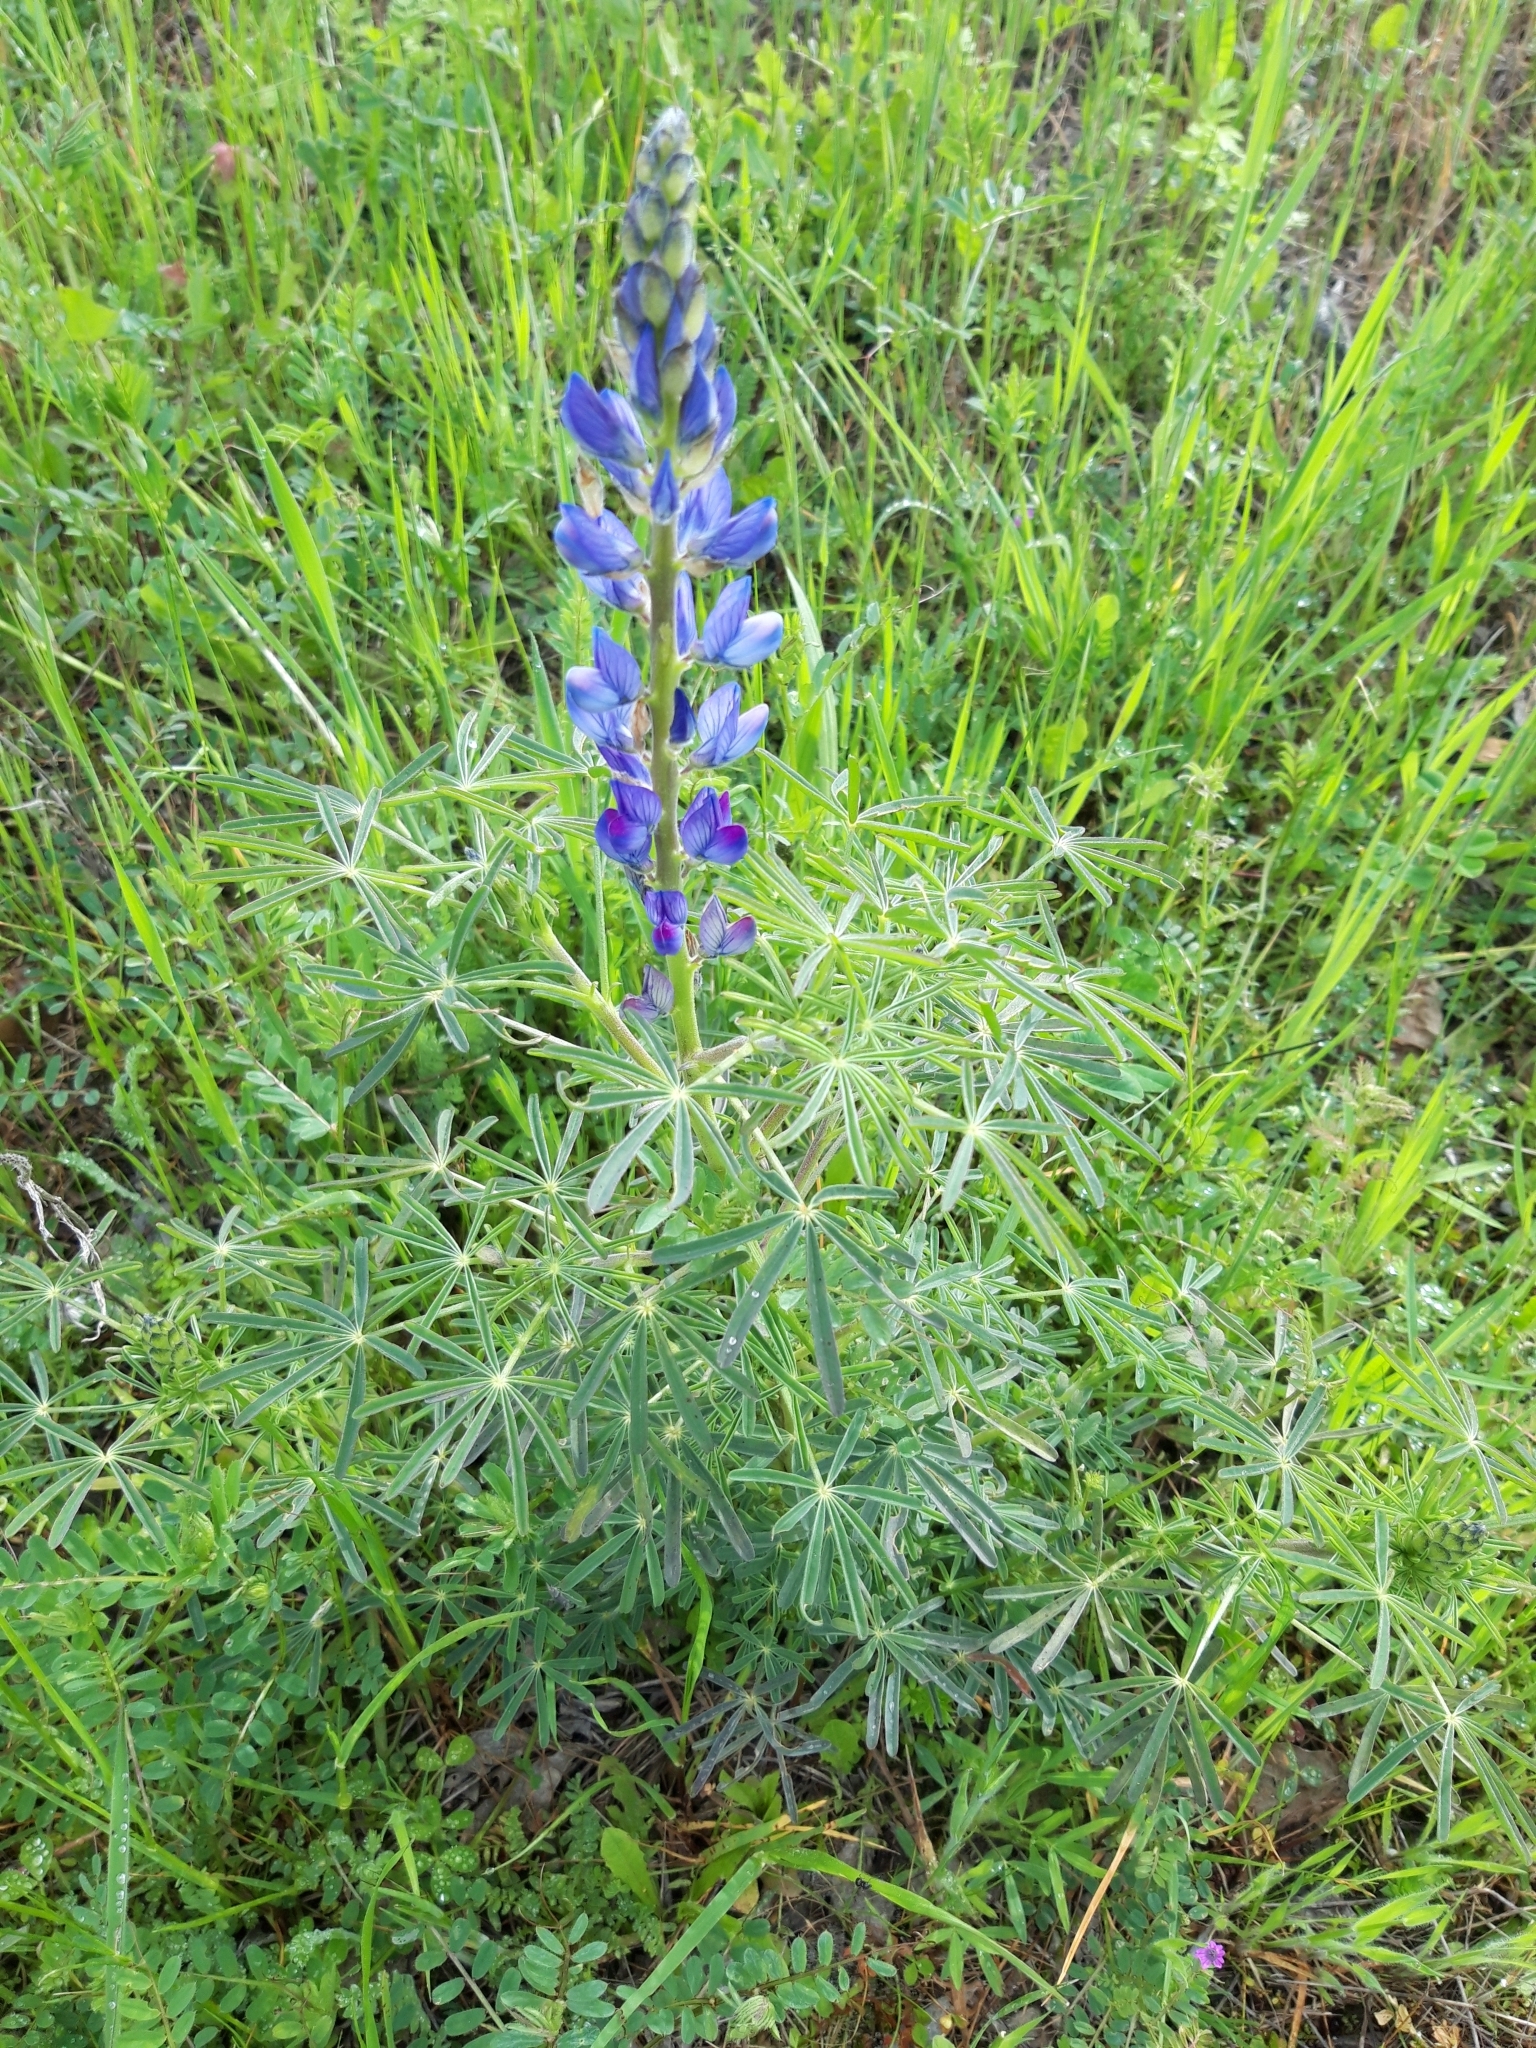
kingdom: Plantae
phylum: Tracheophyta
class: Magnoliopsida
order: Fabales
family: Fabaceae
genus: Lupinus
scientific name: Lupinus angustifolius
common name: Narrow-leaved lupin
